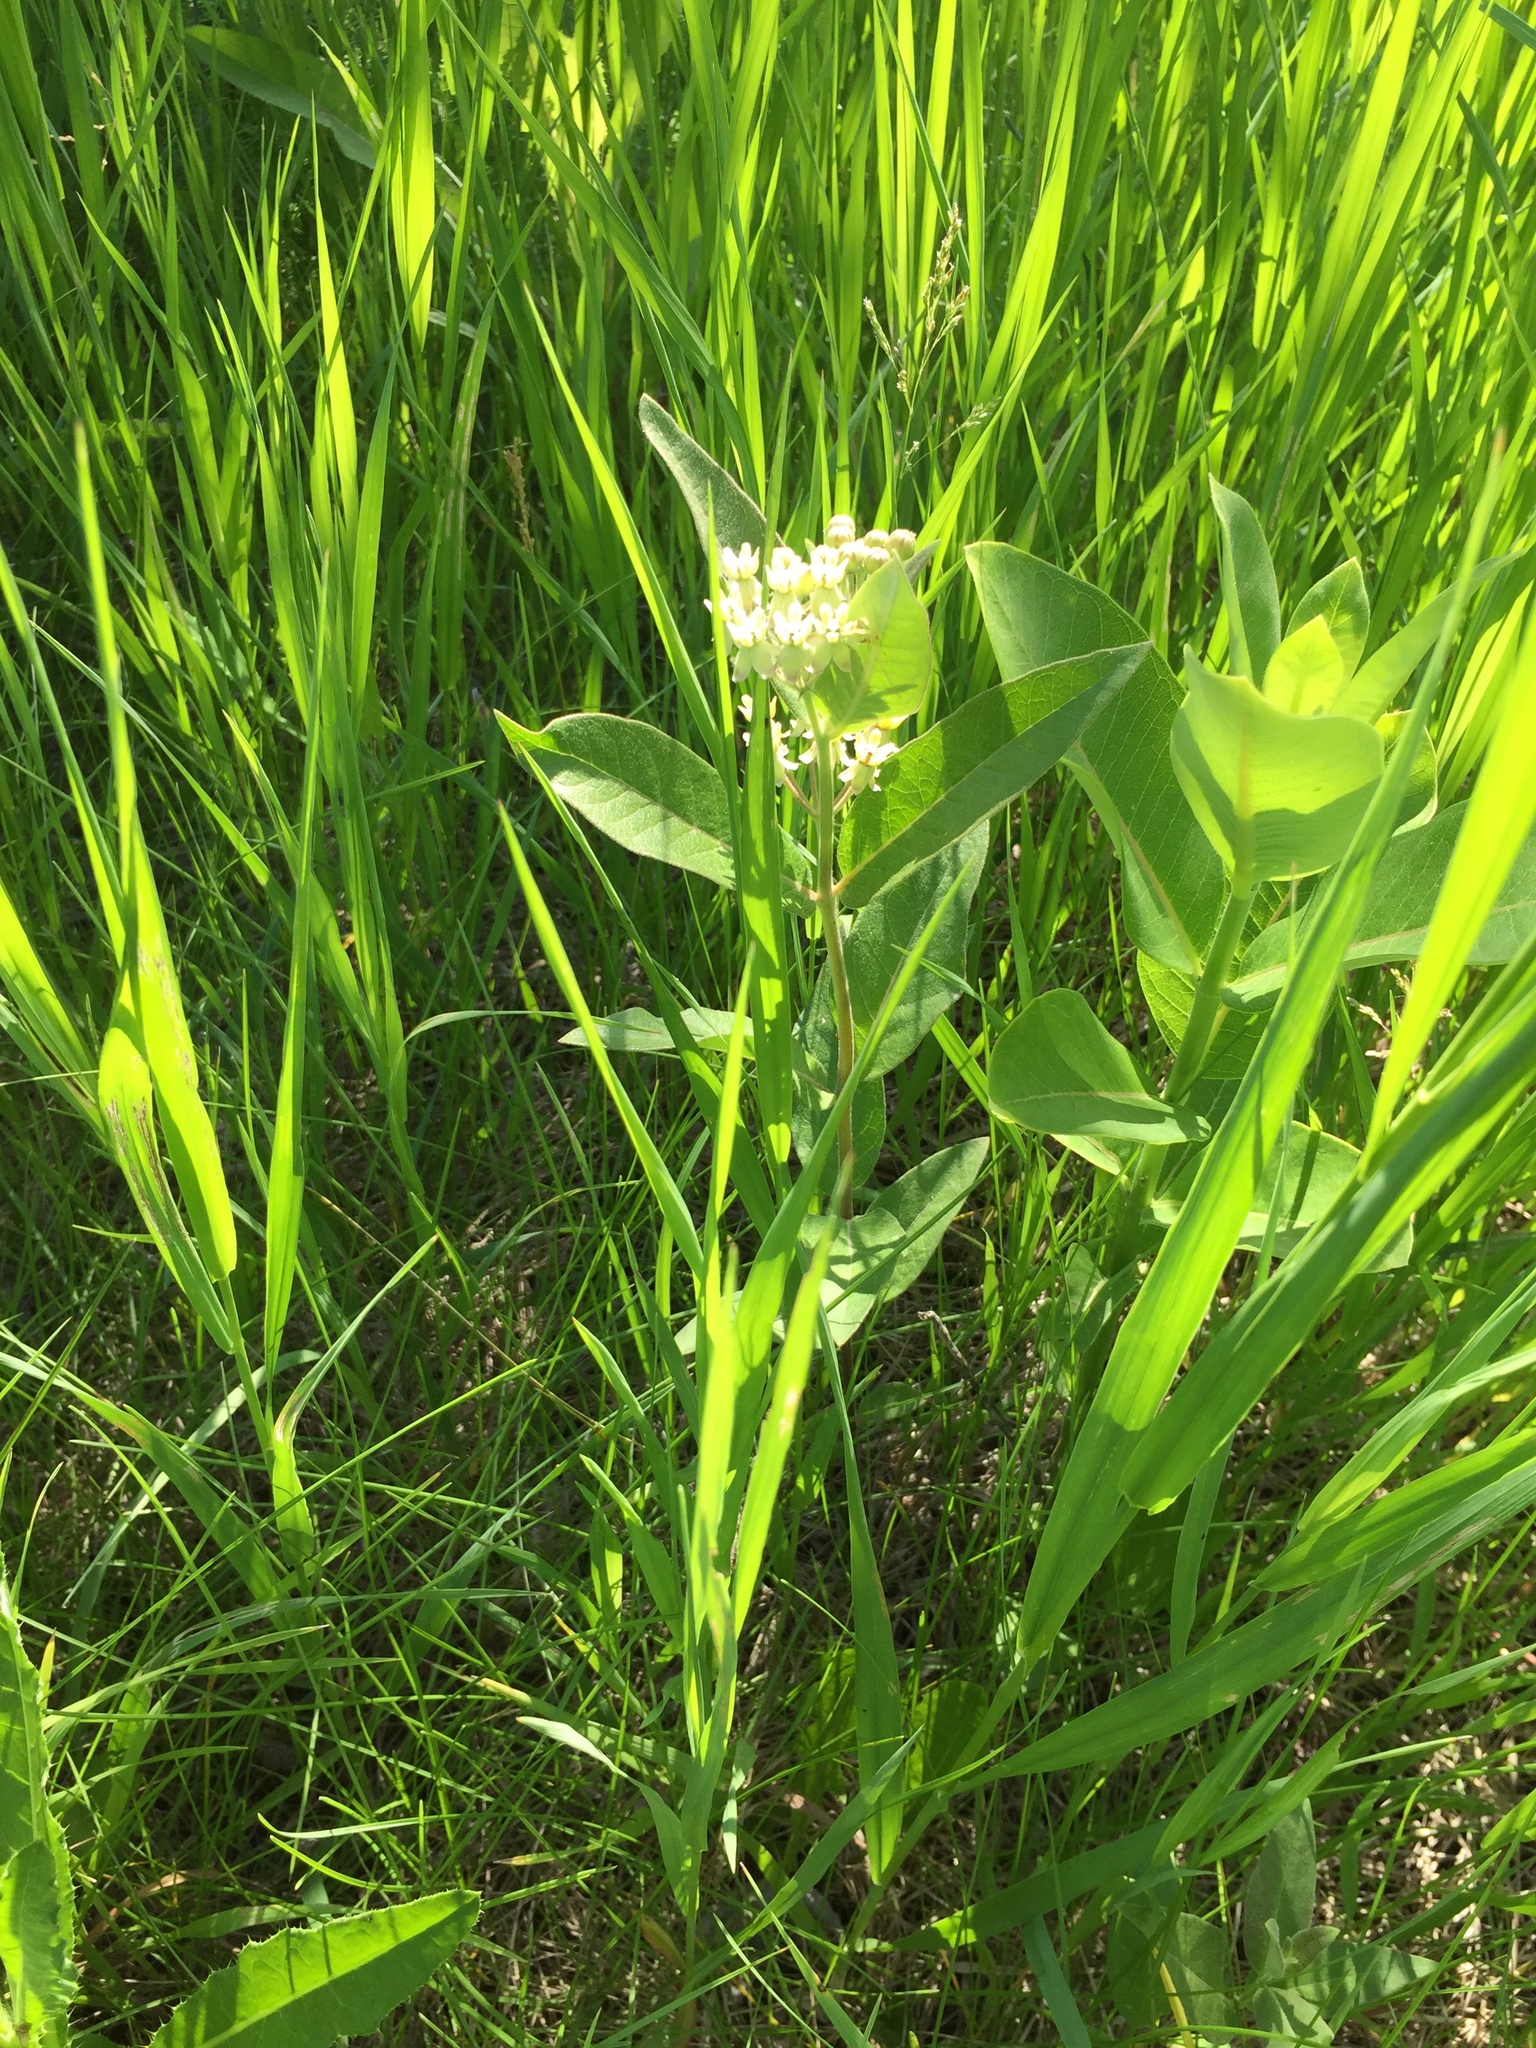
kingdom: Plantae
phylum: Tracheophyta
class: Magnoliopsida
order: Gentianales
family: Apocynaceae
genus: Asclepias
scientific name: Asclepias ovalifolia
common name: Dwarf milkweed
